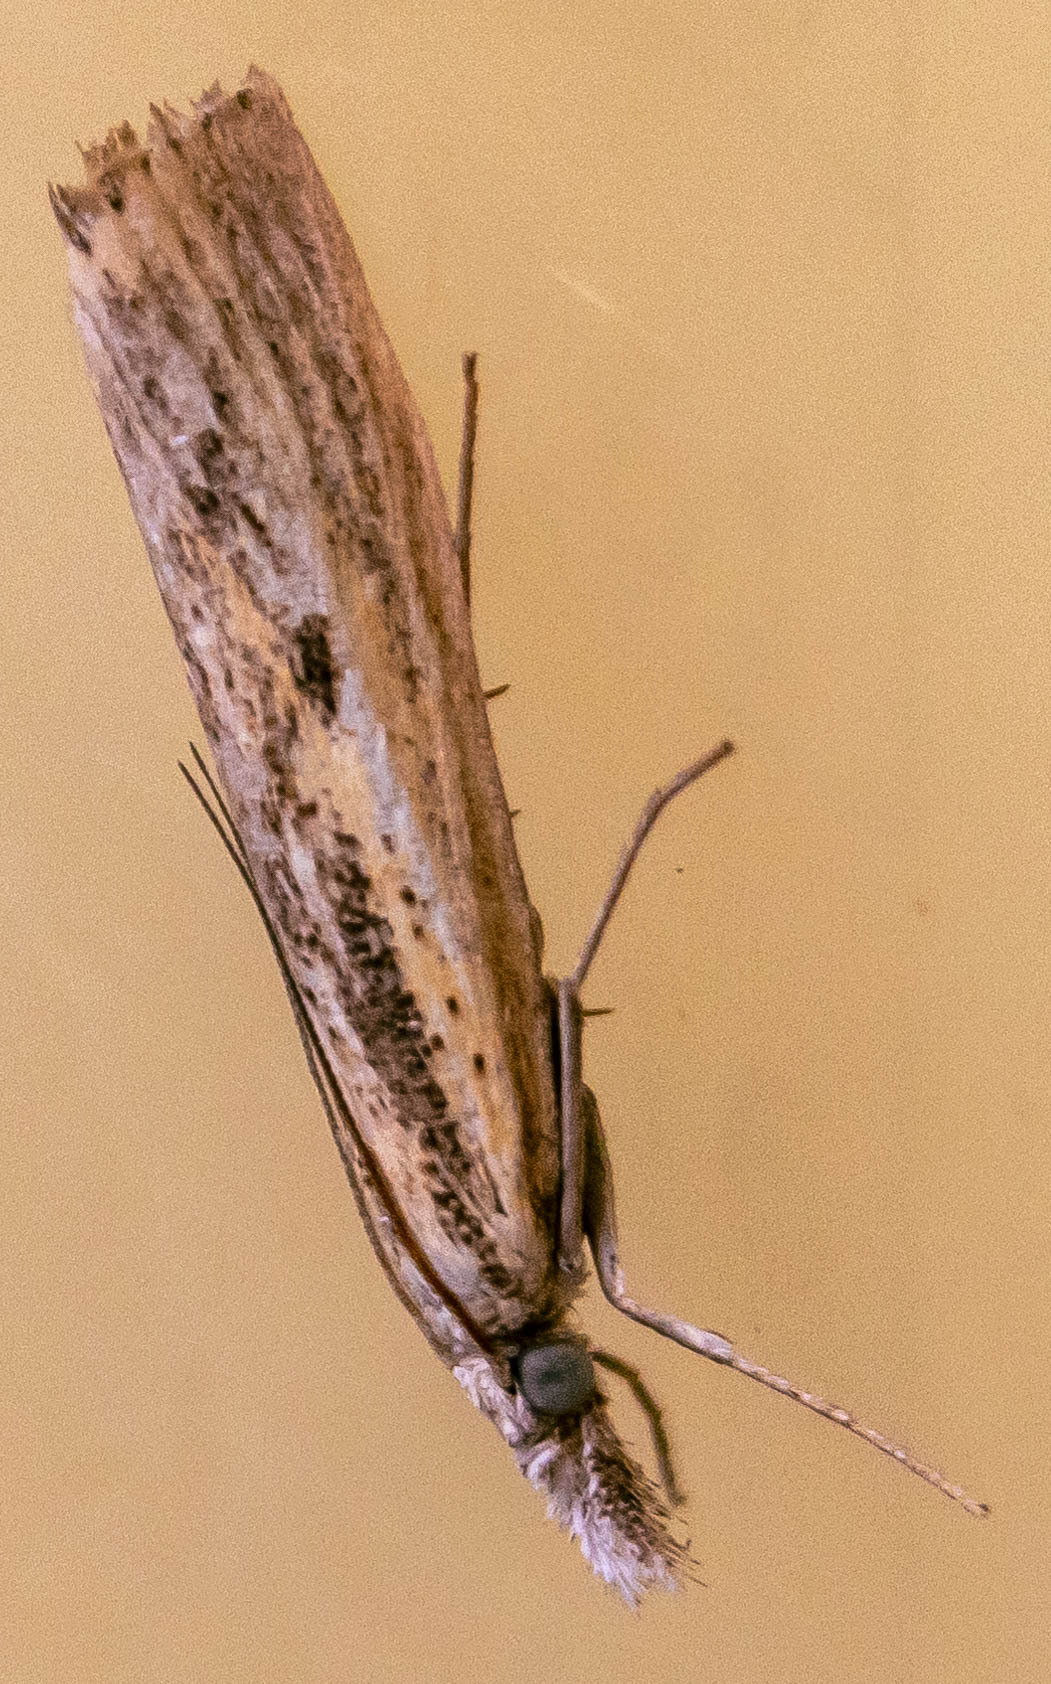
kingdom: Animalia
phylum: Arthropoda
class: Insecta
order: Lepidoptera
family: Crambidae
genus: Agriphila
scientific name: Agriphila inquinatella
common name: Barred grass-veneer
